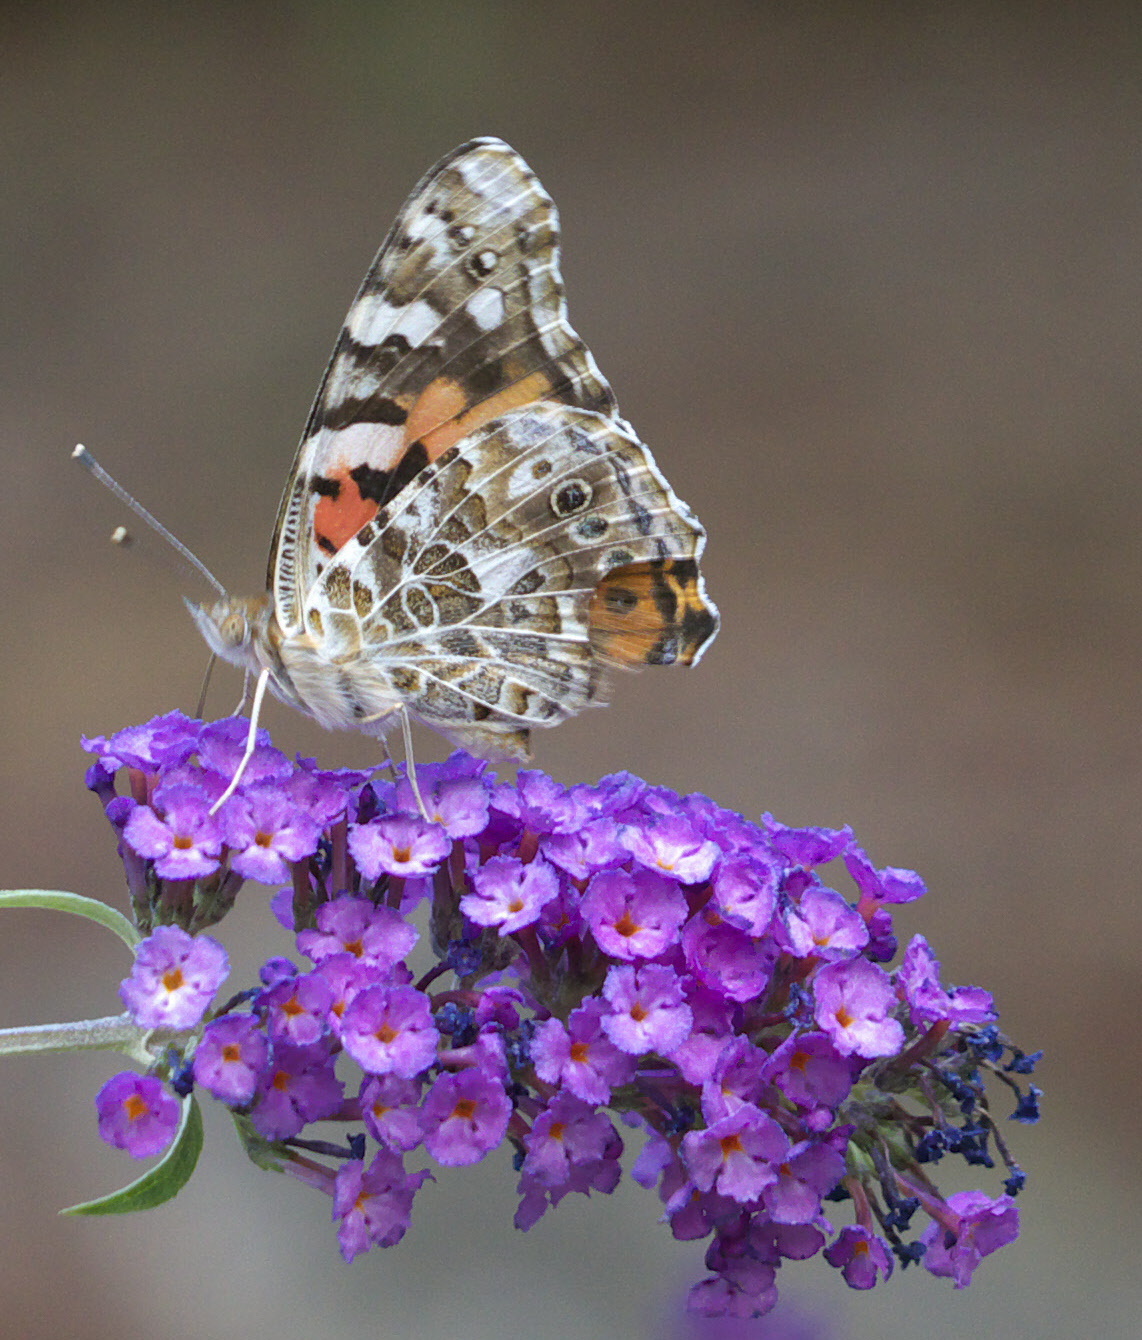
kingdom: Animalia
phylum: Arthropoda
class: Insecta
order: Lepidoptera
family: Nymphalidae
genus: Vanessa
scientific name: Vanessa cardui
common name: Painted lady
